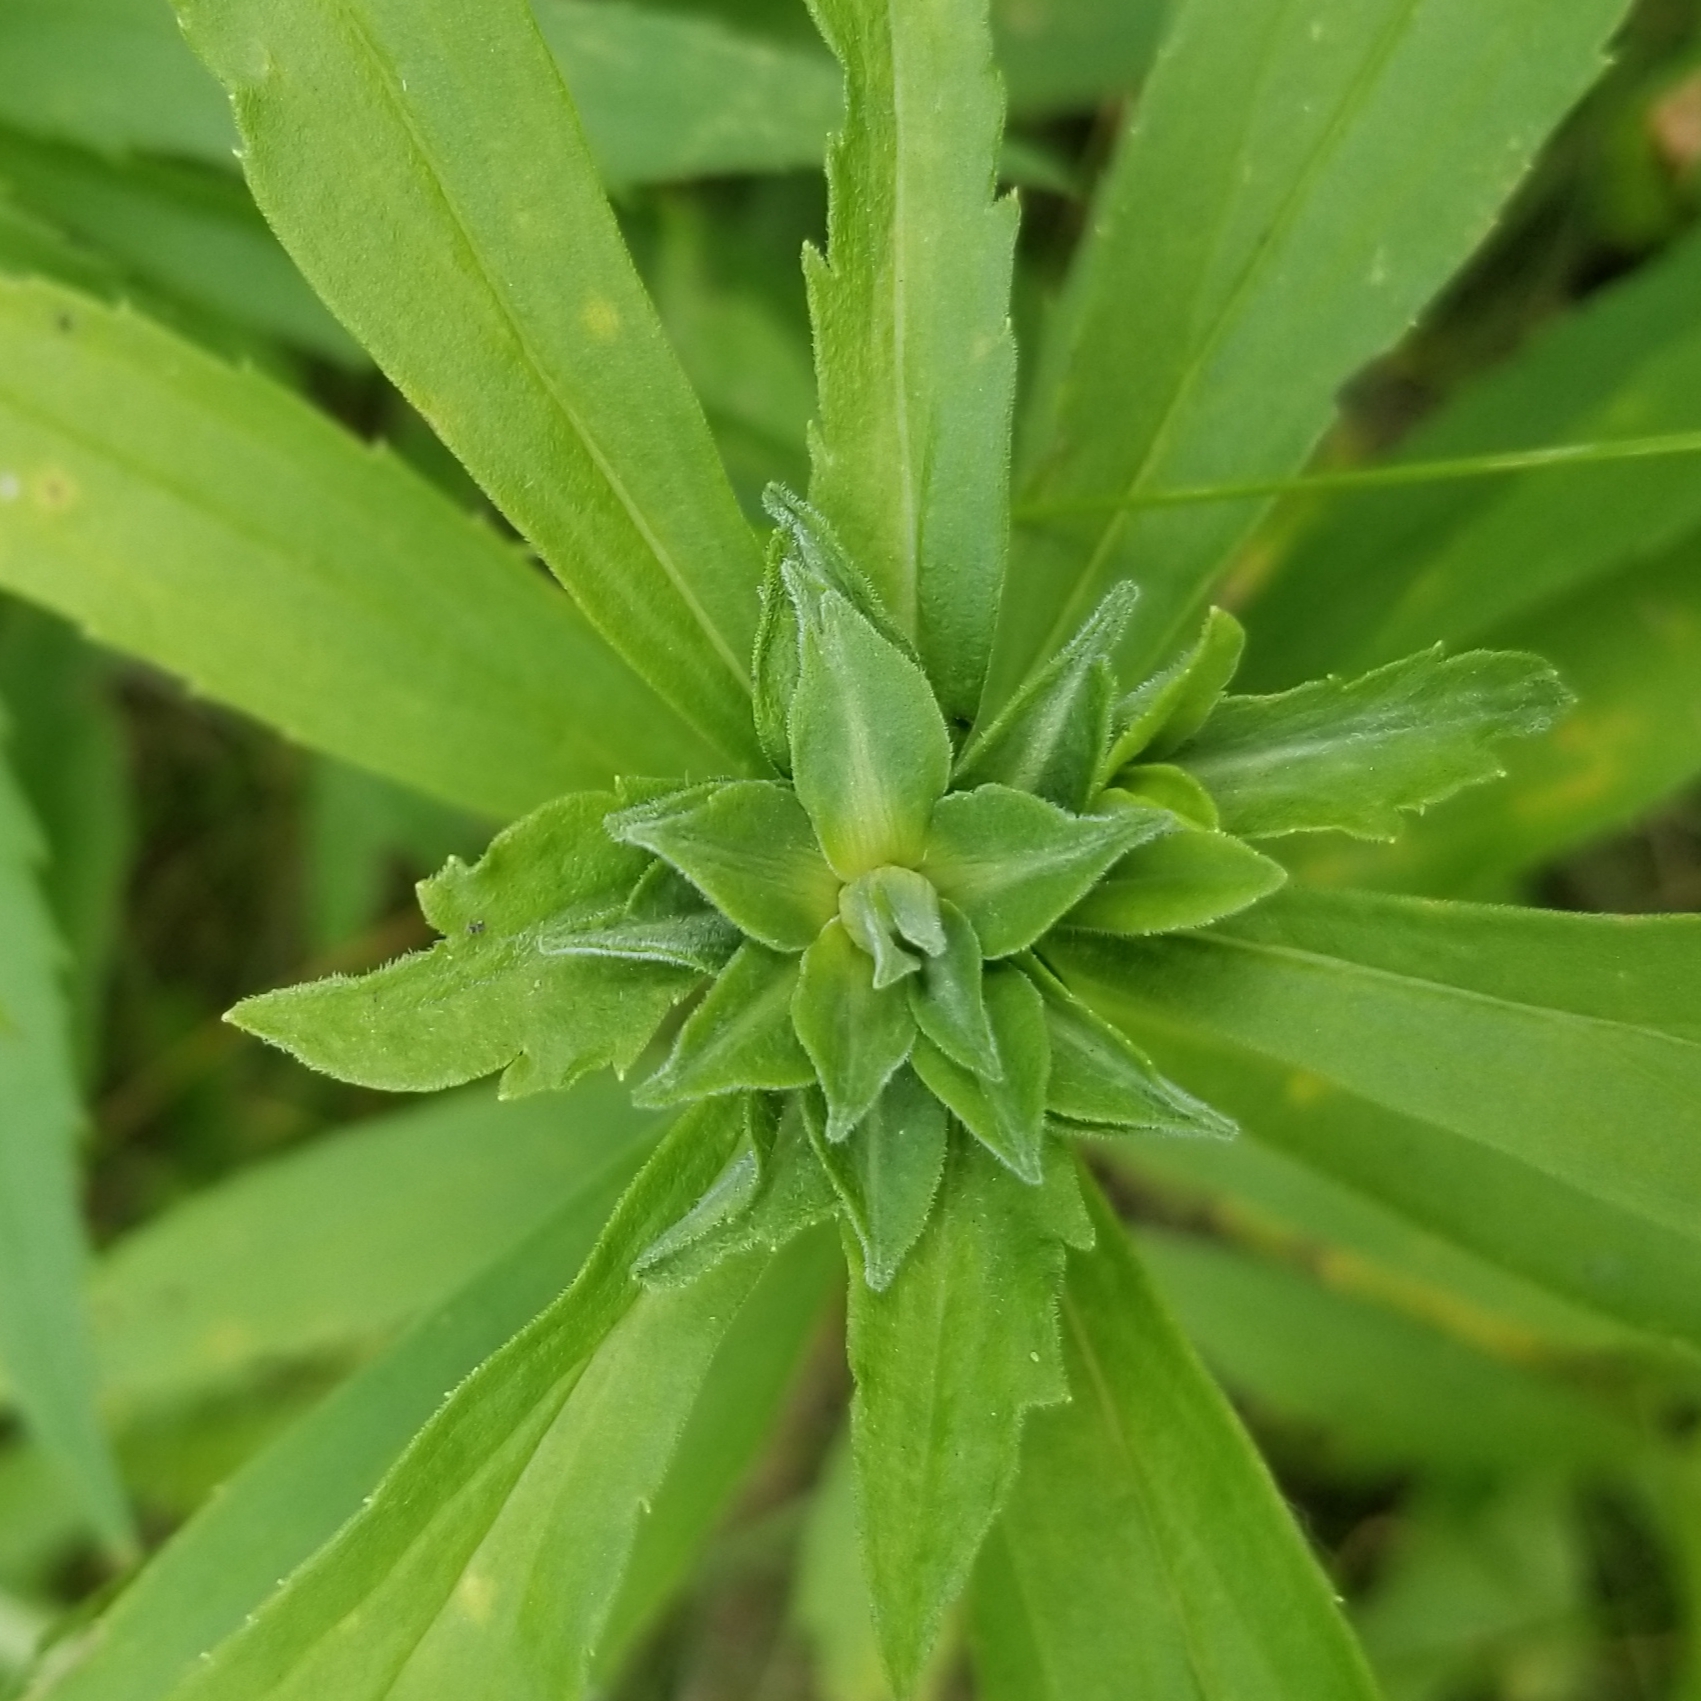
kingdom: Animalia
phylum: Arthropoda
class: Insecta
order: Diptera
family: Cecidomyiidae
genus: Asphondylia
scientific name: Asphondylia solidaginis
